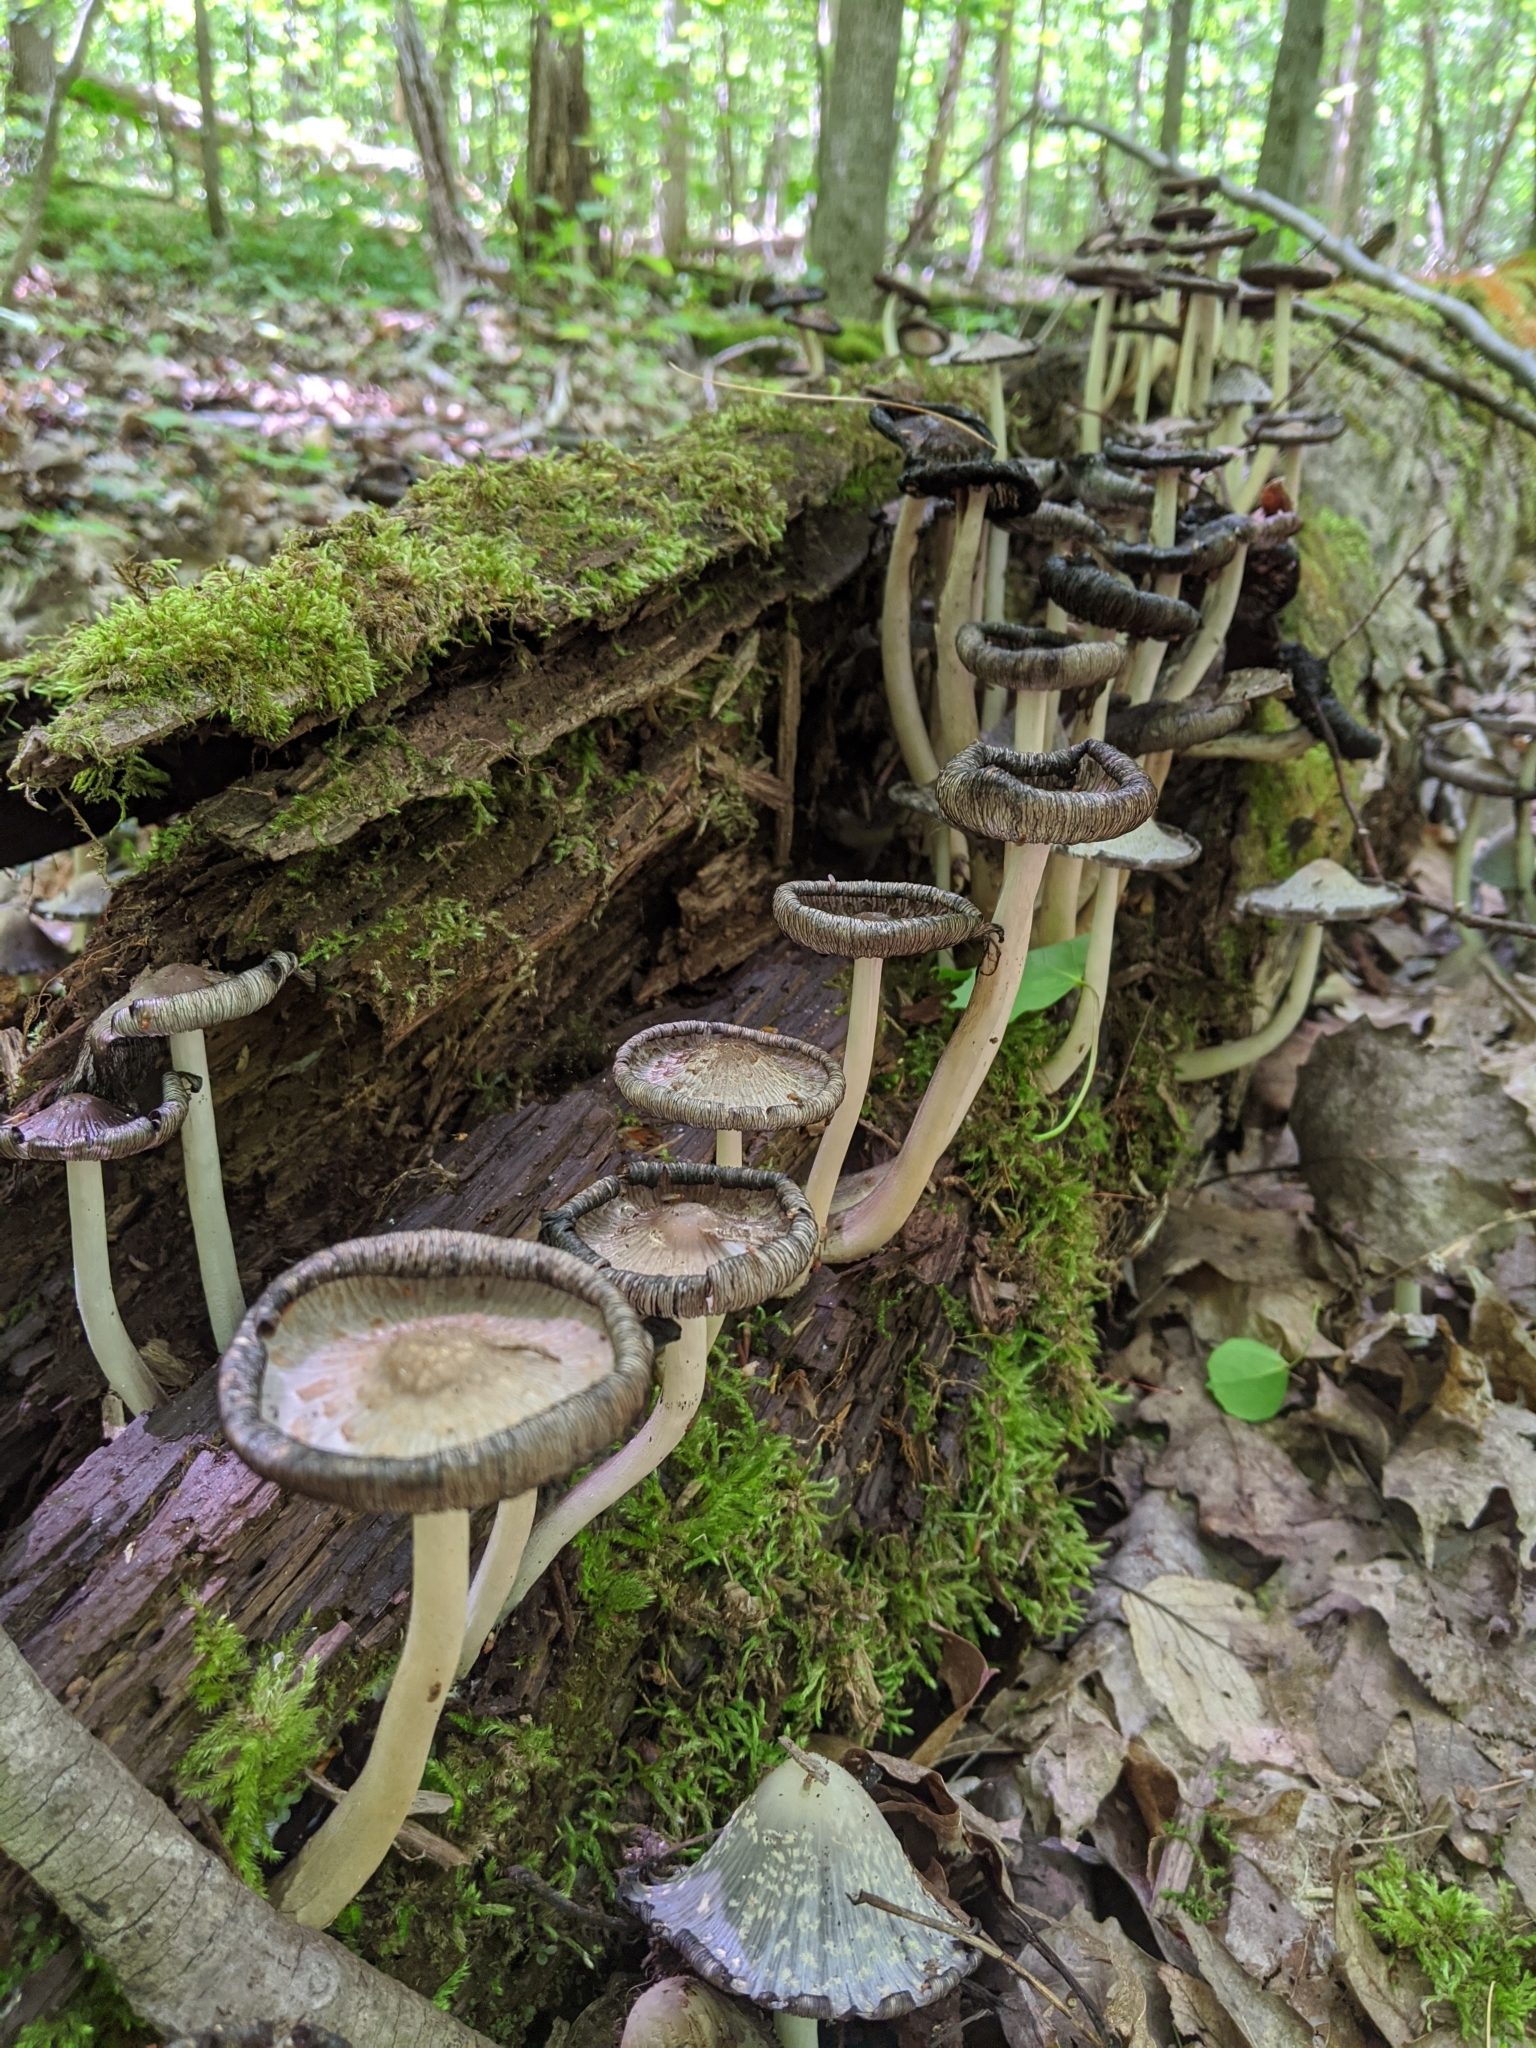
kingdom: Fungi
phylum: Basidiomycota
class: Agaricomycetes
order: Agaricales
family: Psathyrellaceae
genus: Coprinopsis
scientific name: Coprinopsis variegata
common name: Scaly ink cap
